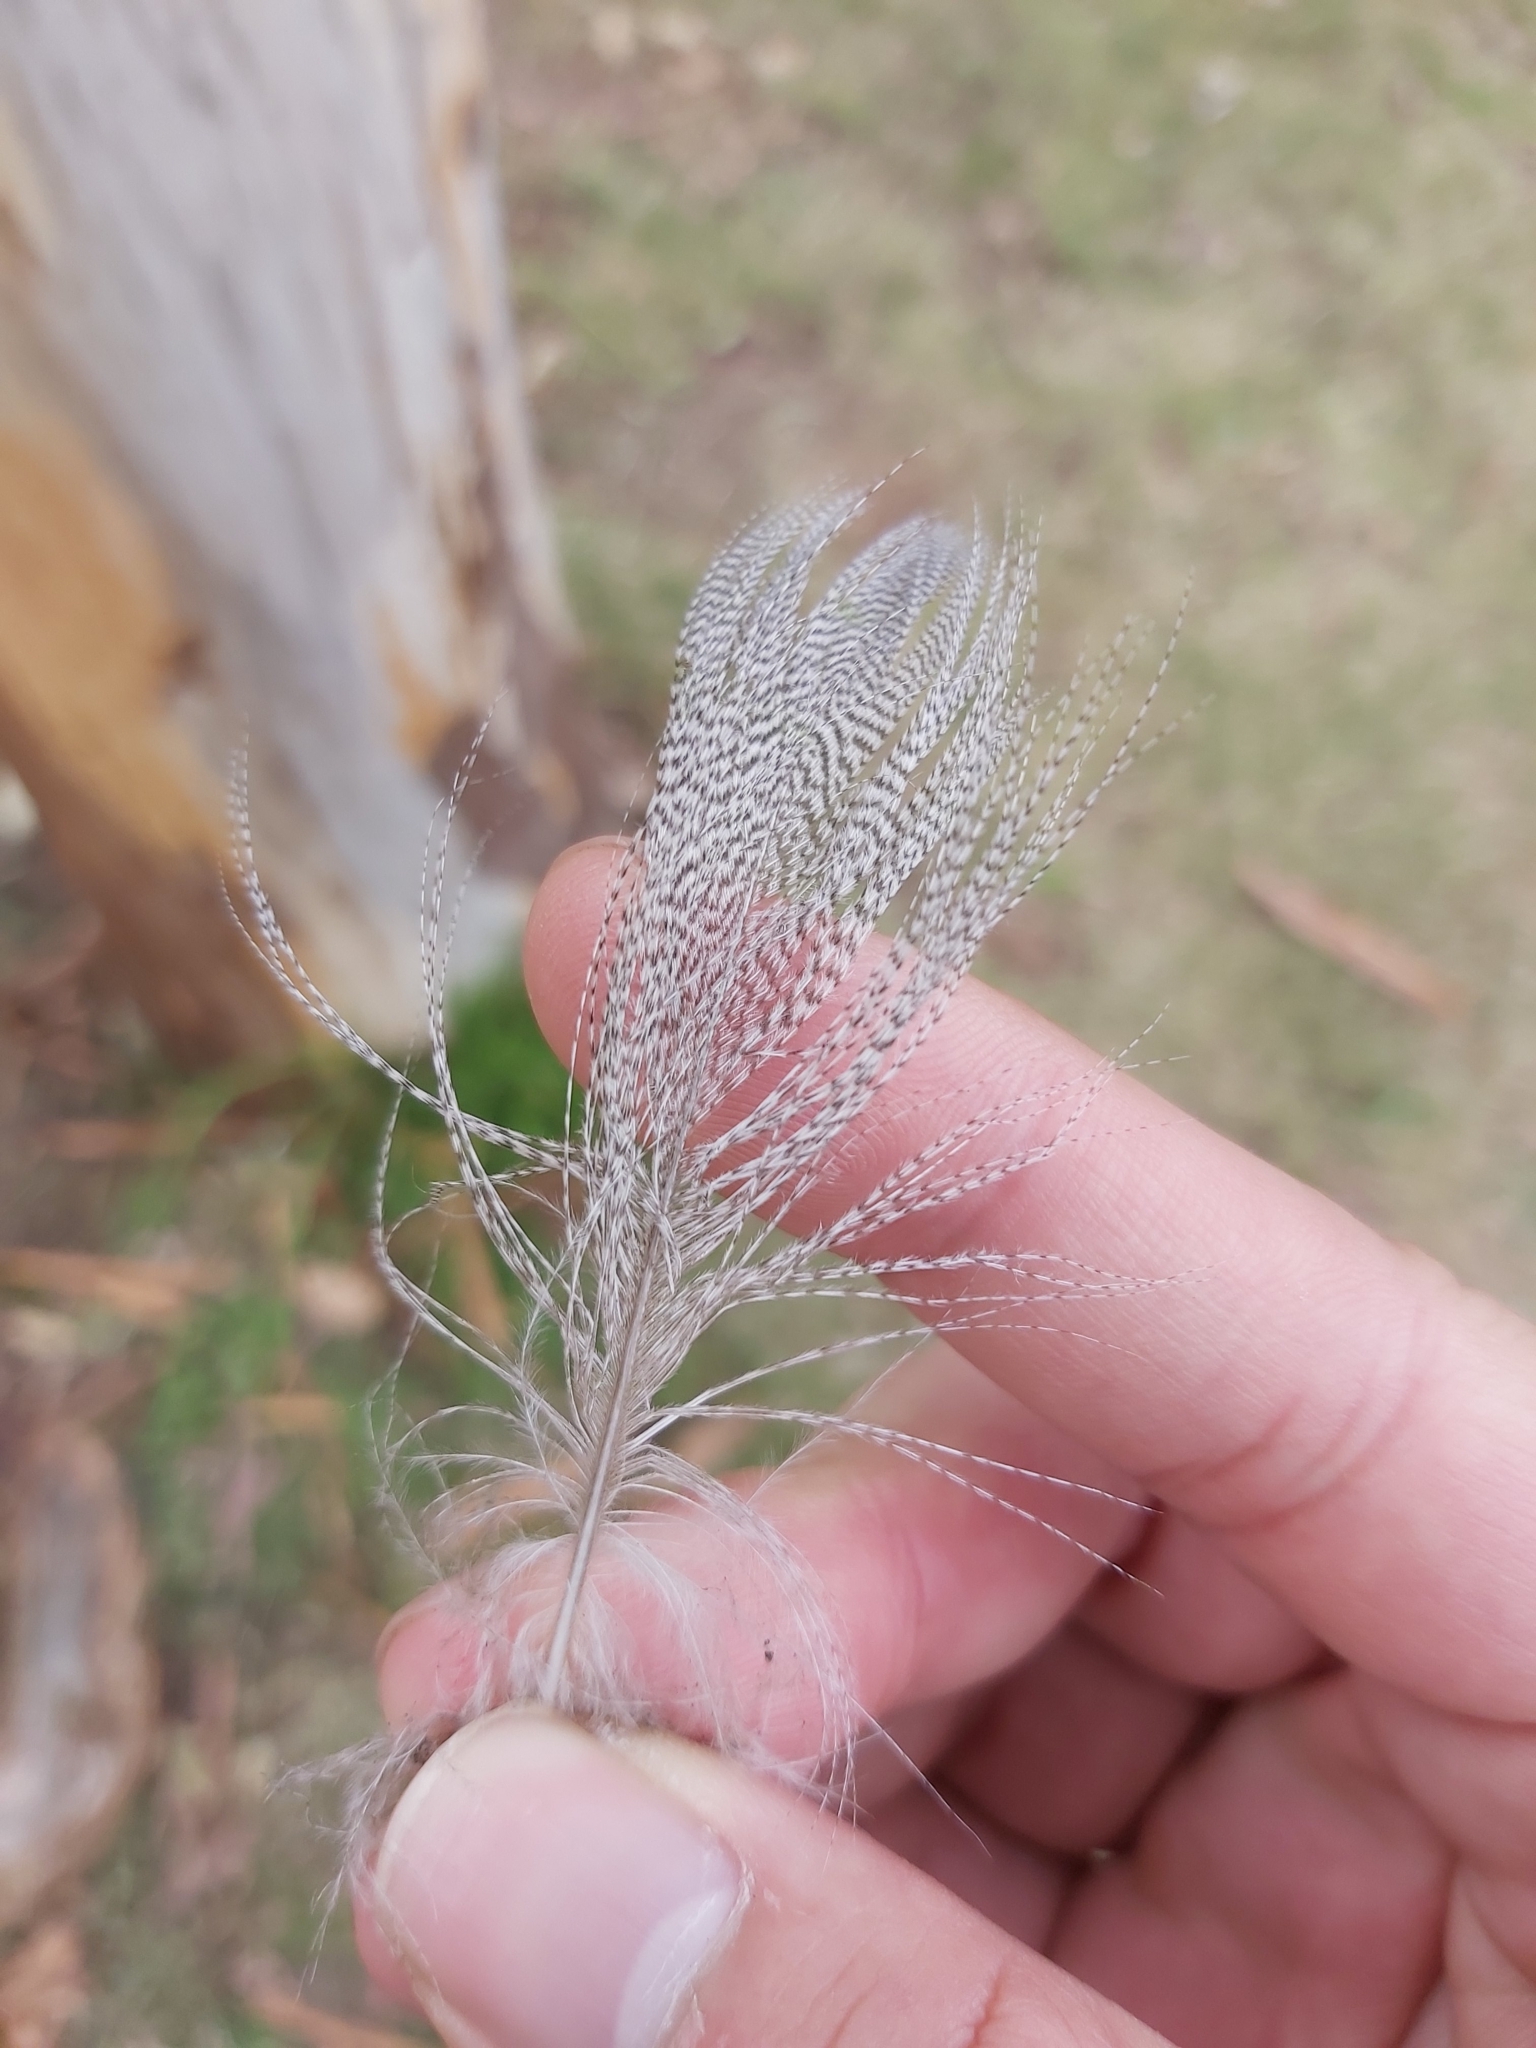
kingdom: Animalia
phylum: Chordata
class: Aves
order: Anseriformes
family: Anatidae
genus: Chenonetta
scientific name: Chenonetta jubata
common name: Maned duck
